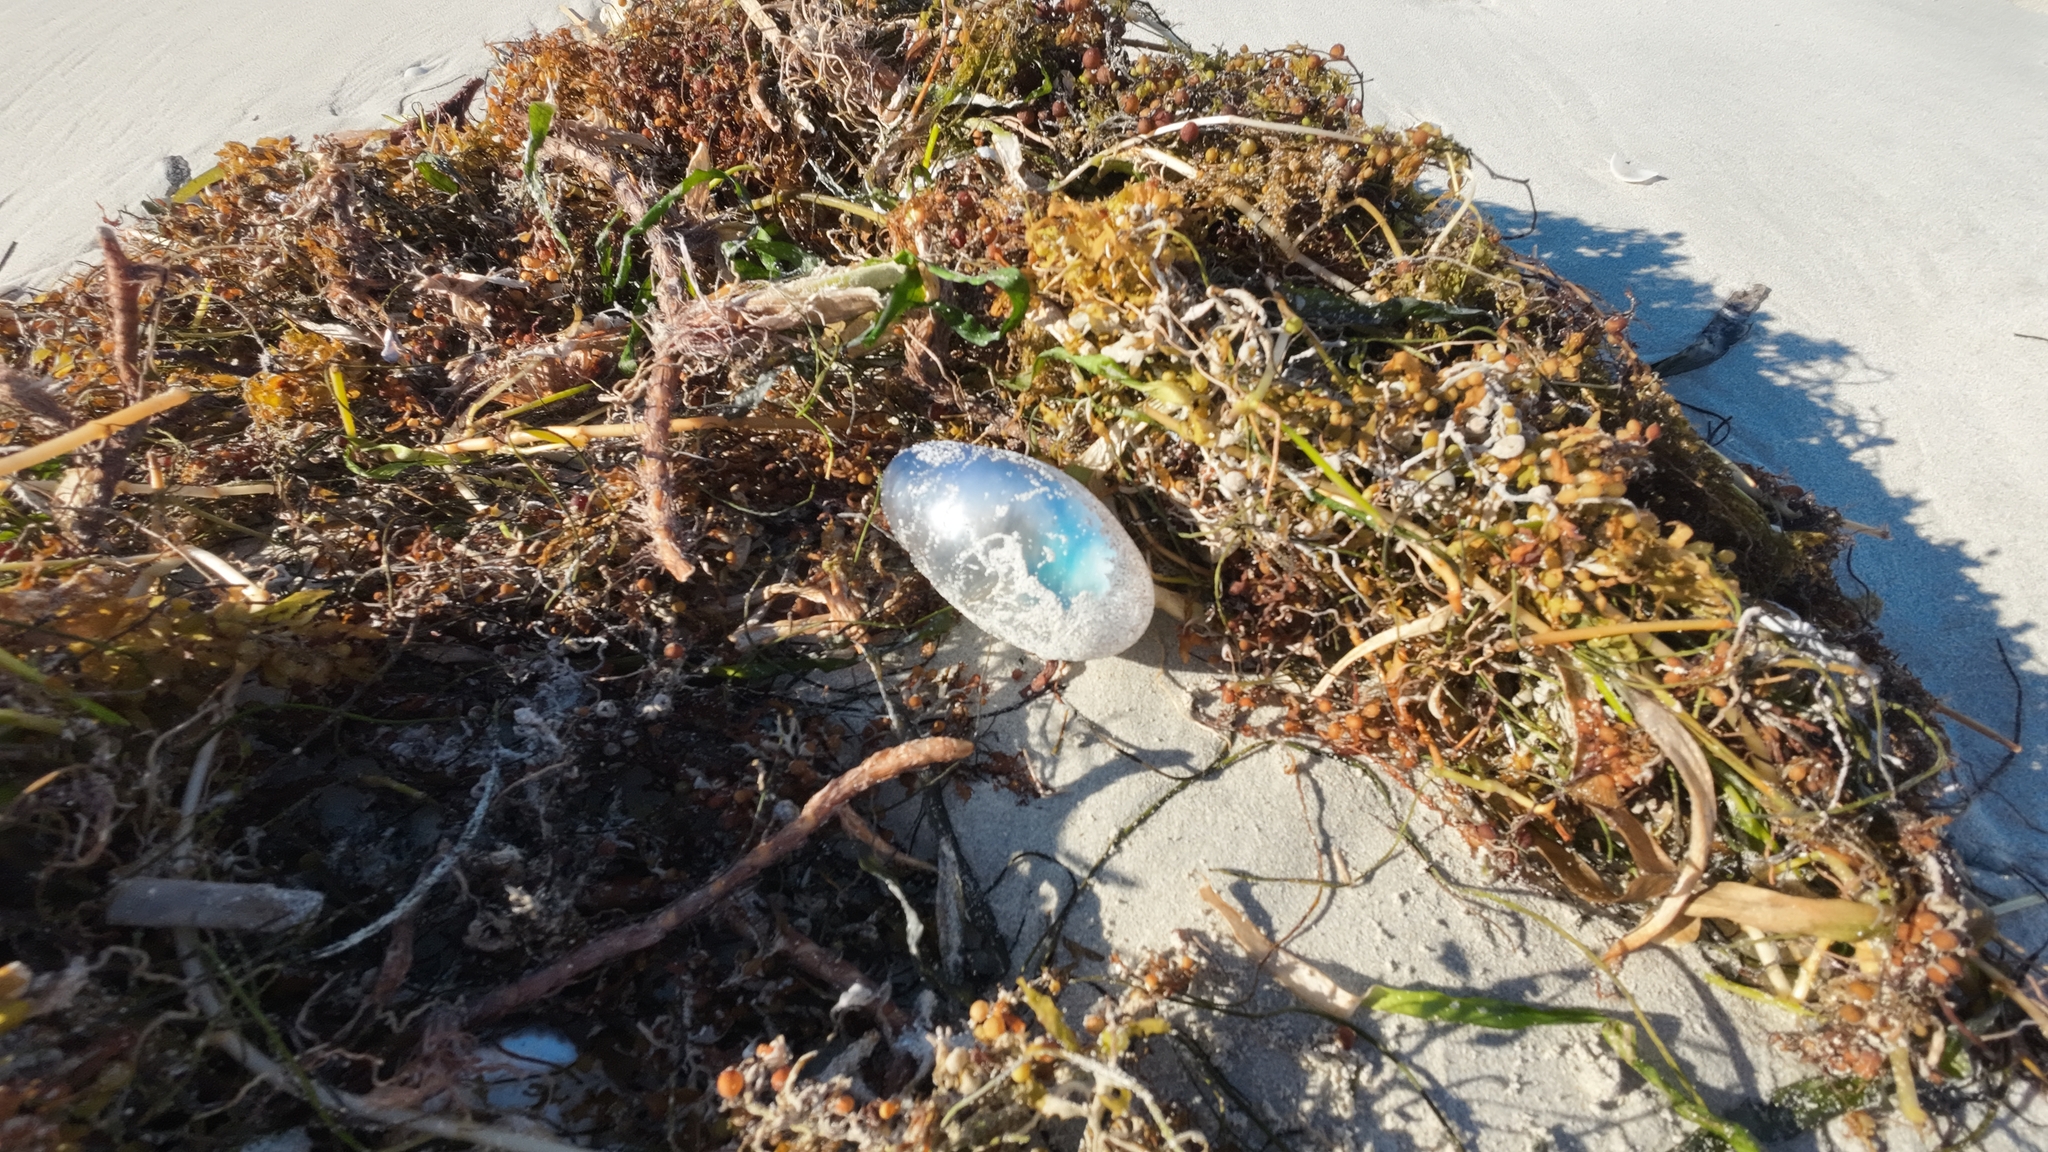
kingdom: Animalia
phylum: Cnidaria
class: Hydrozoa
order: Siphonophorae
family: Physaliidae
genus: Physalia
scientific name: Physalia physalis
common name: Portuguese man-of-war
